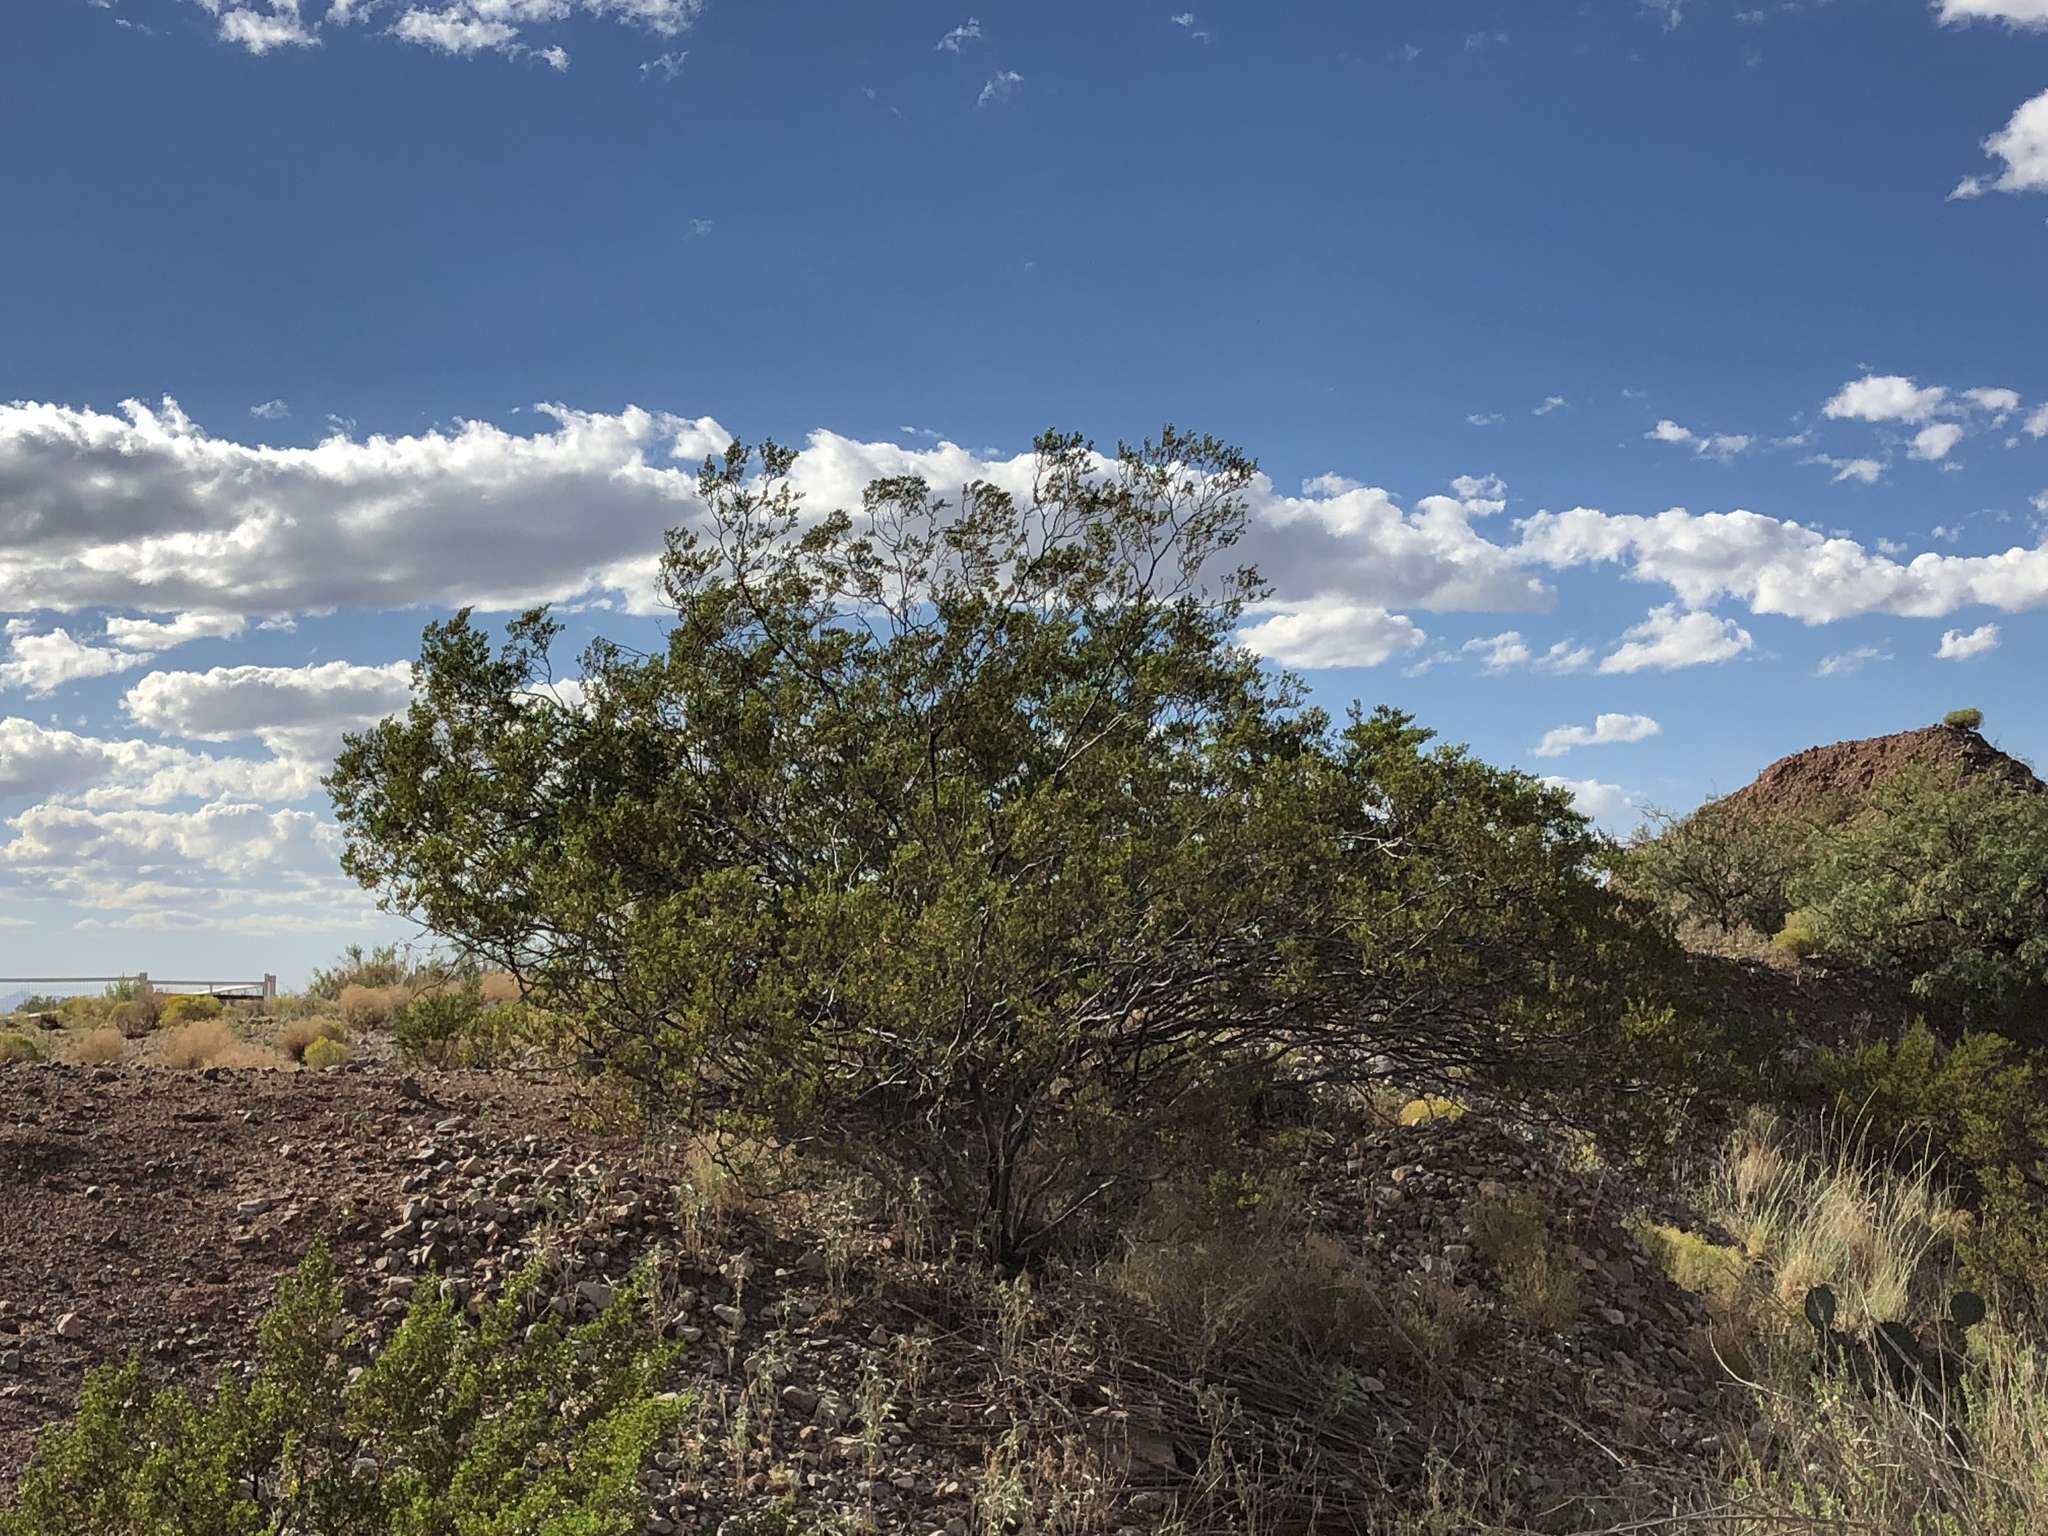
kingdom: Plantae
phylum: Tracheophyta
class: Magnoliopsida
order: Zygophyllales
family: Zygophyllaceae
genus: Larrea
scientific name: Larrea tridentata
